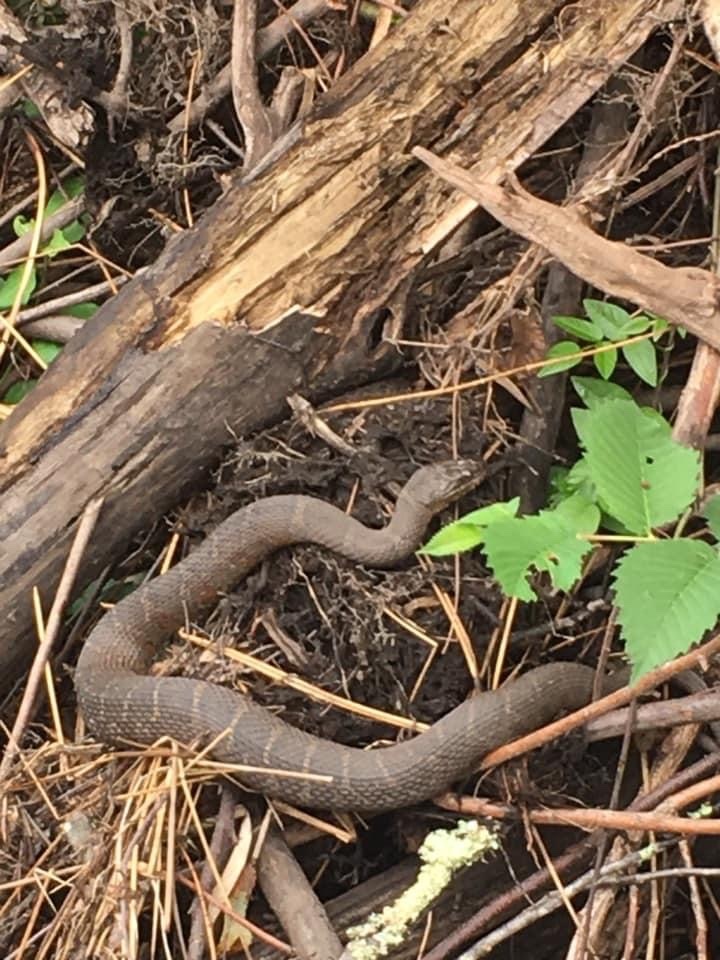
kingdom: Animalia
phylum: Chordata
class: Squamata
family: Colubridae
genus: Nerodia
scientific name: Nerodia sipedon
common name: Northern water snake
